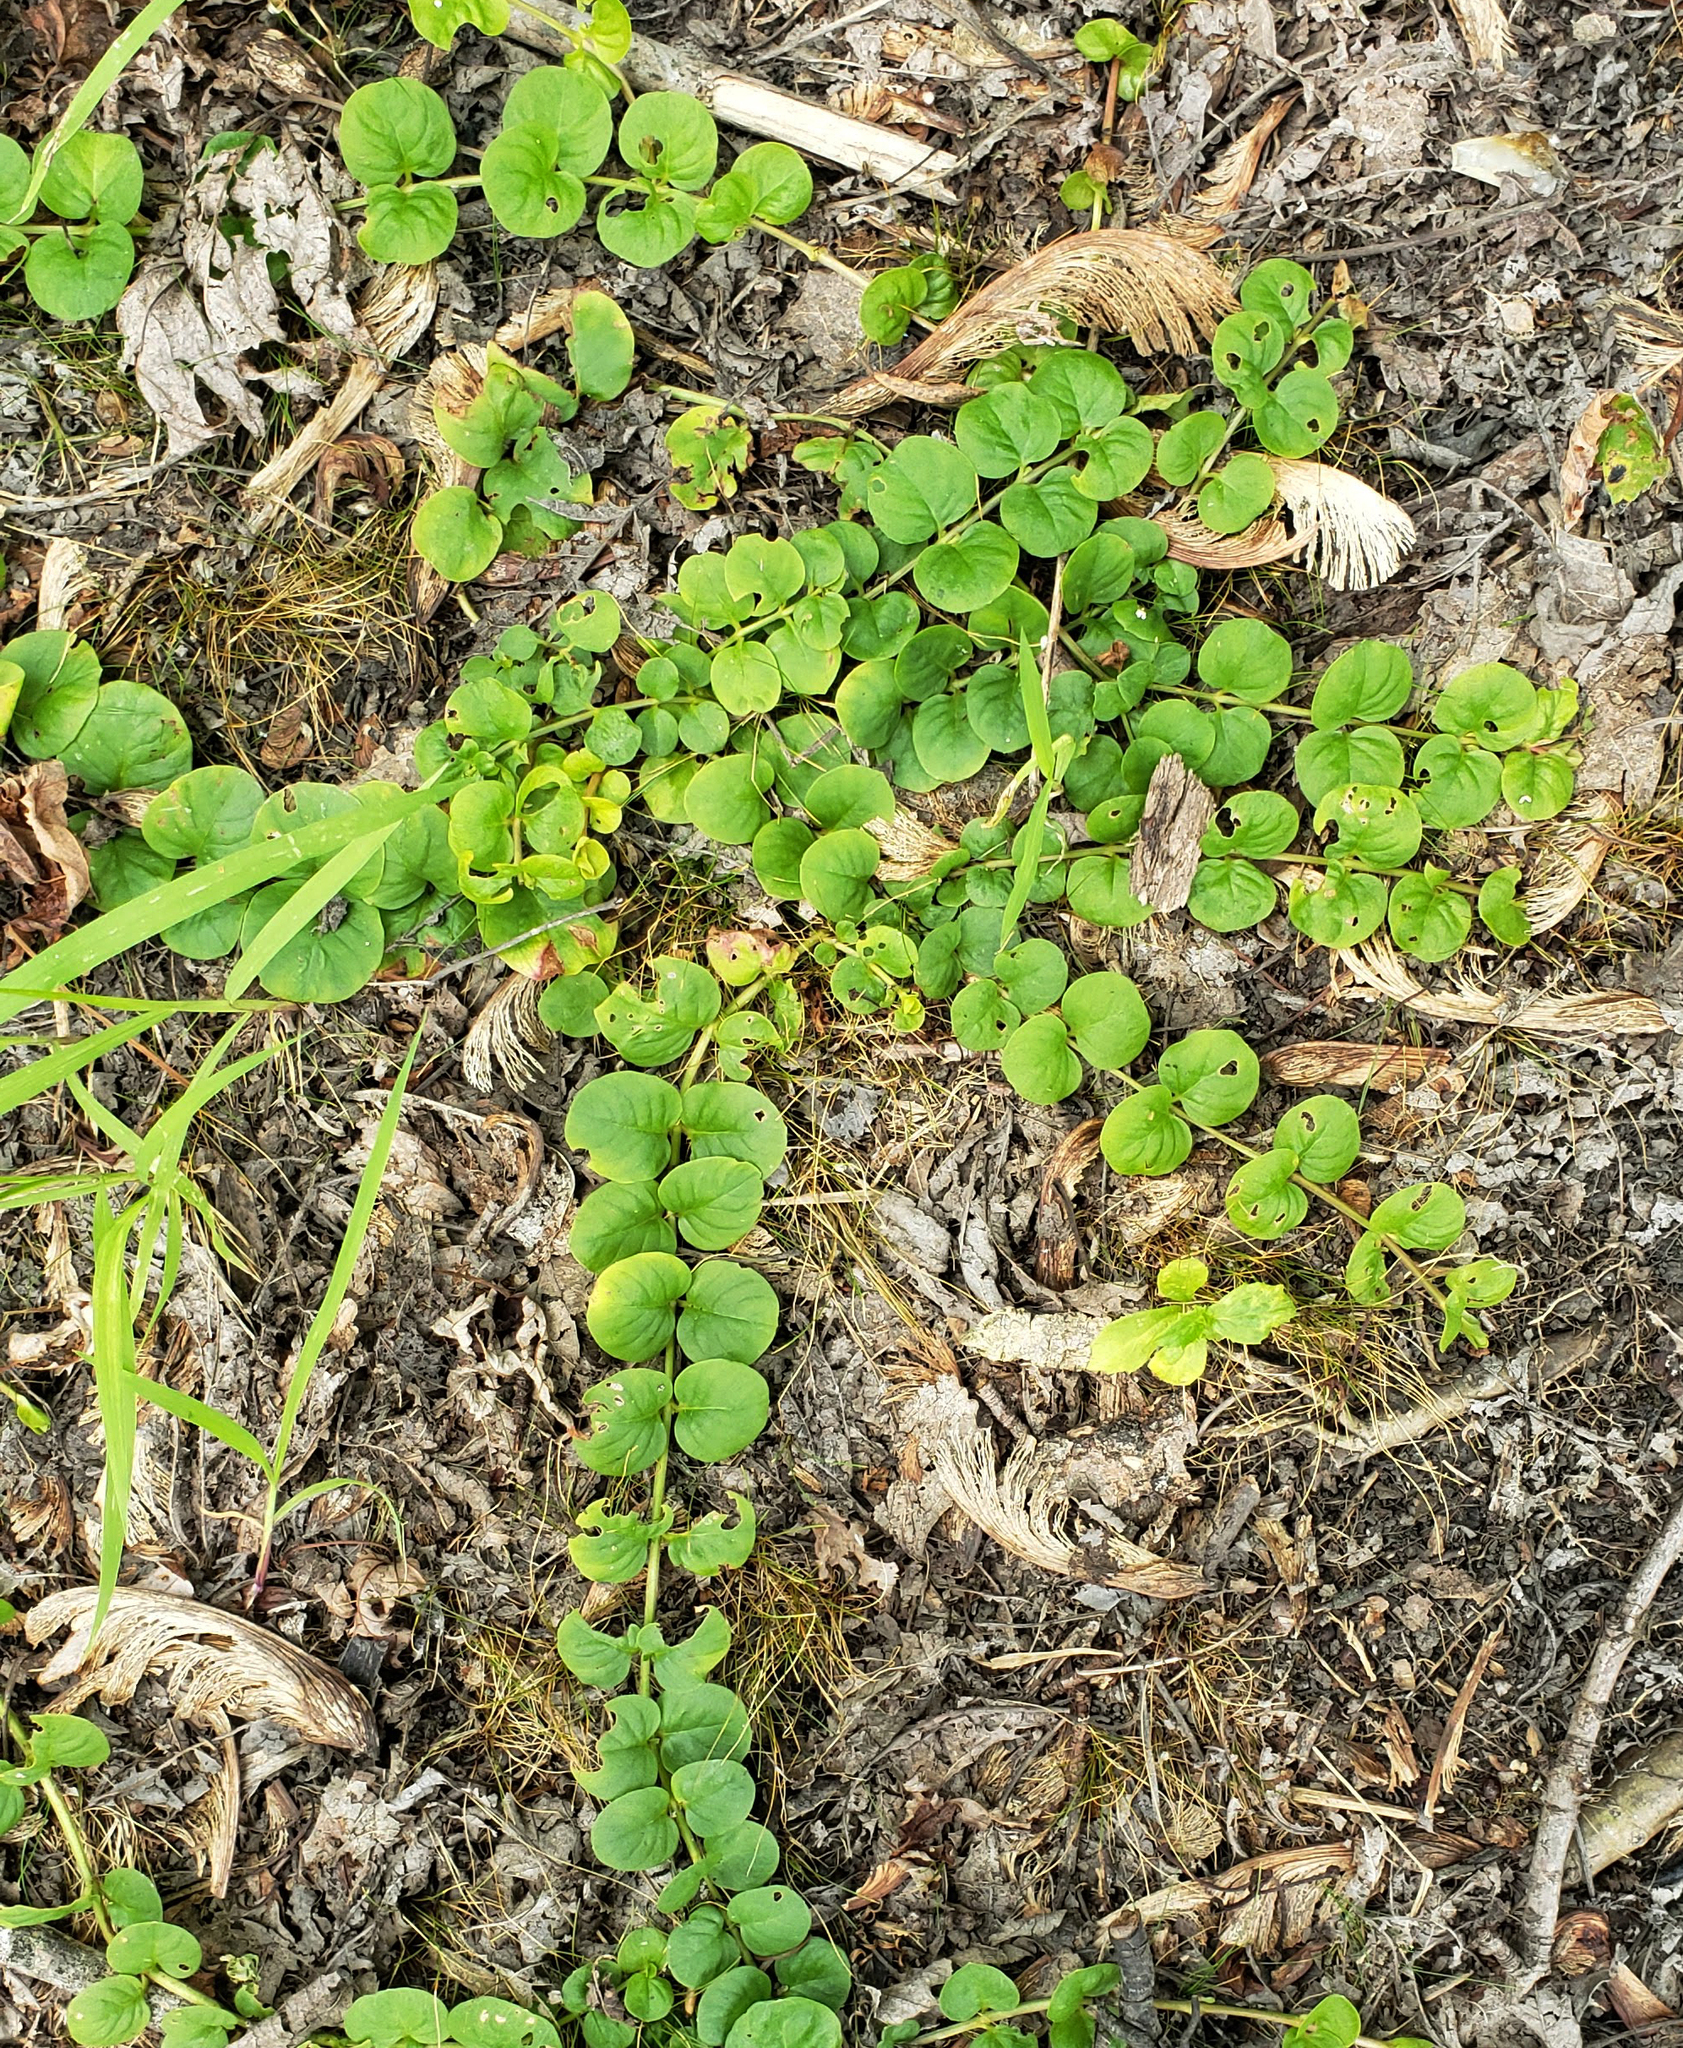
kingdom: Plantae
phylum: Tracheophyta
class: Magnoliopsida
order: Ericales
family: Primulaceae
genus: Lysimachia
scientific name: Lysimachia nummularia
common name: Moneywort
